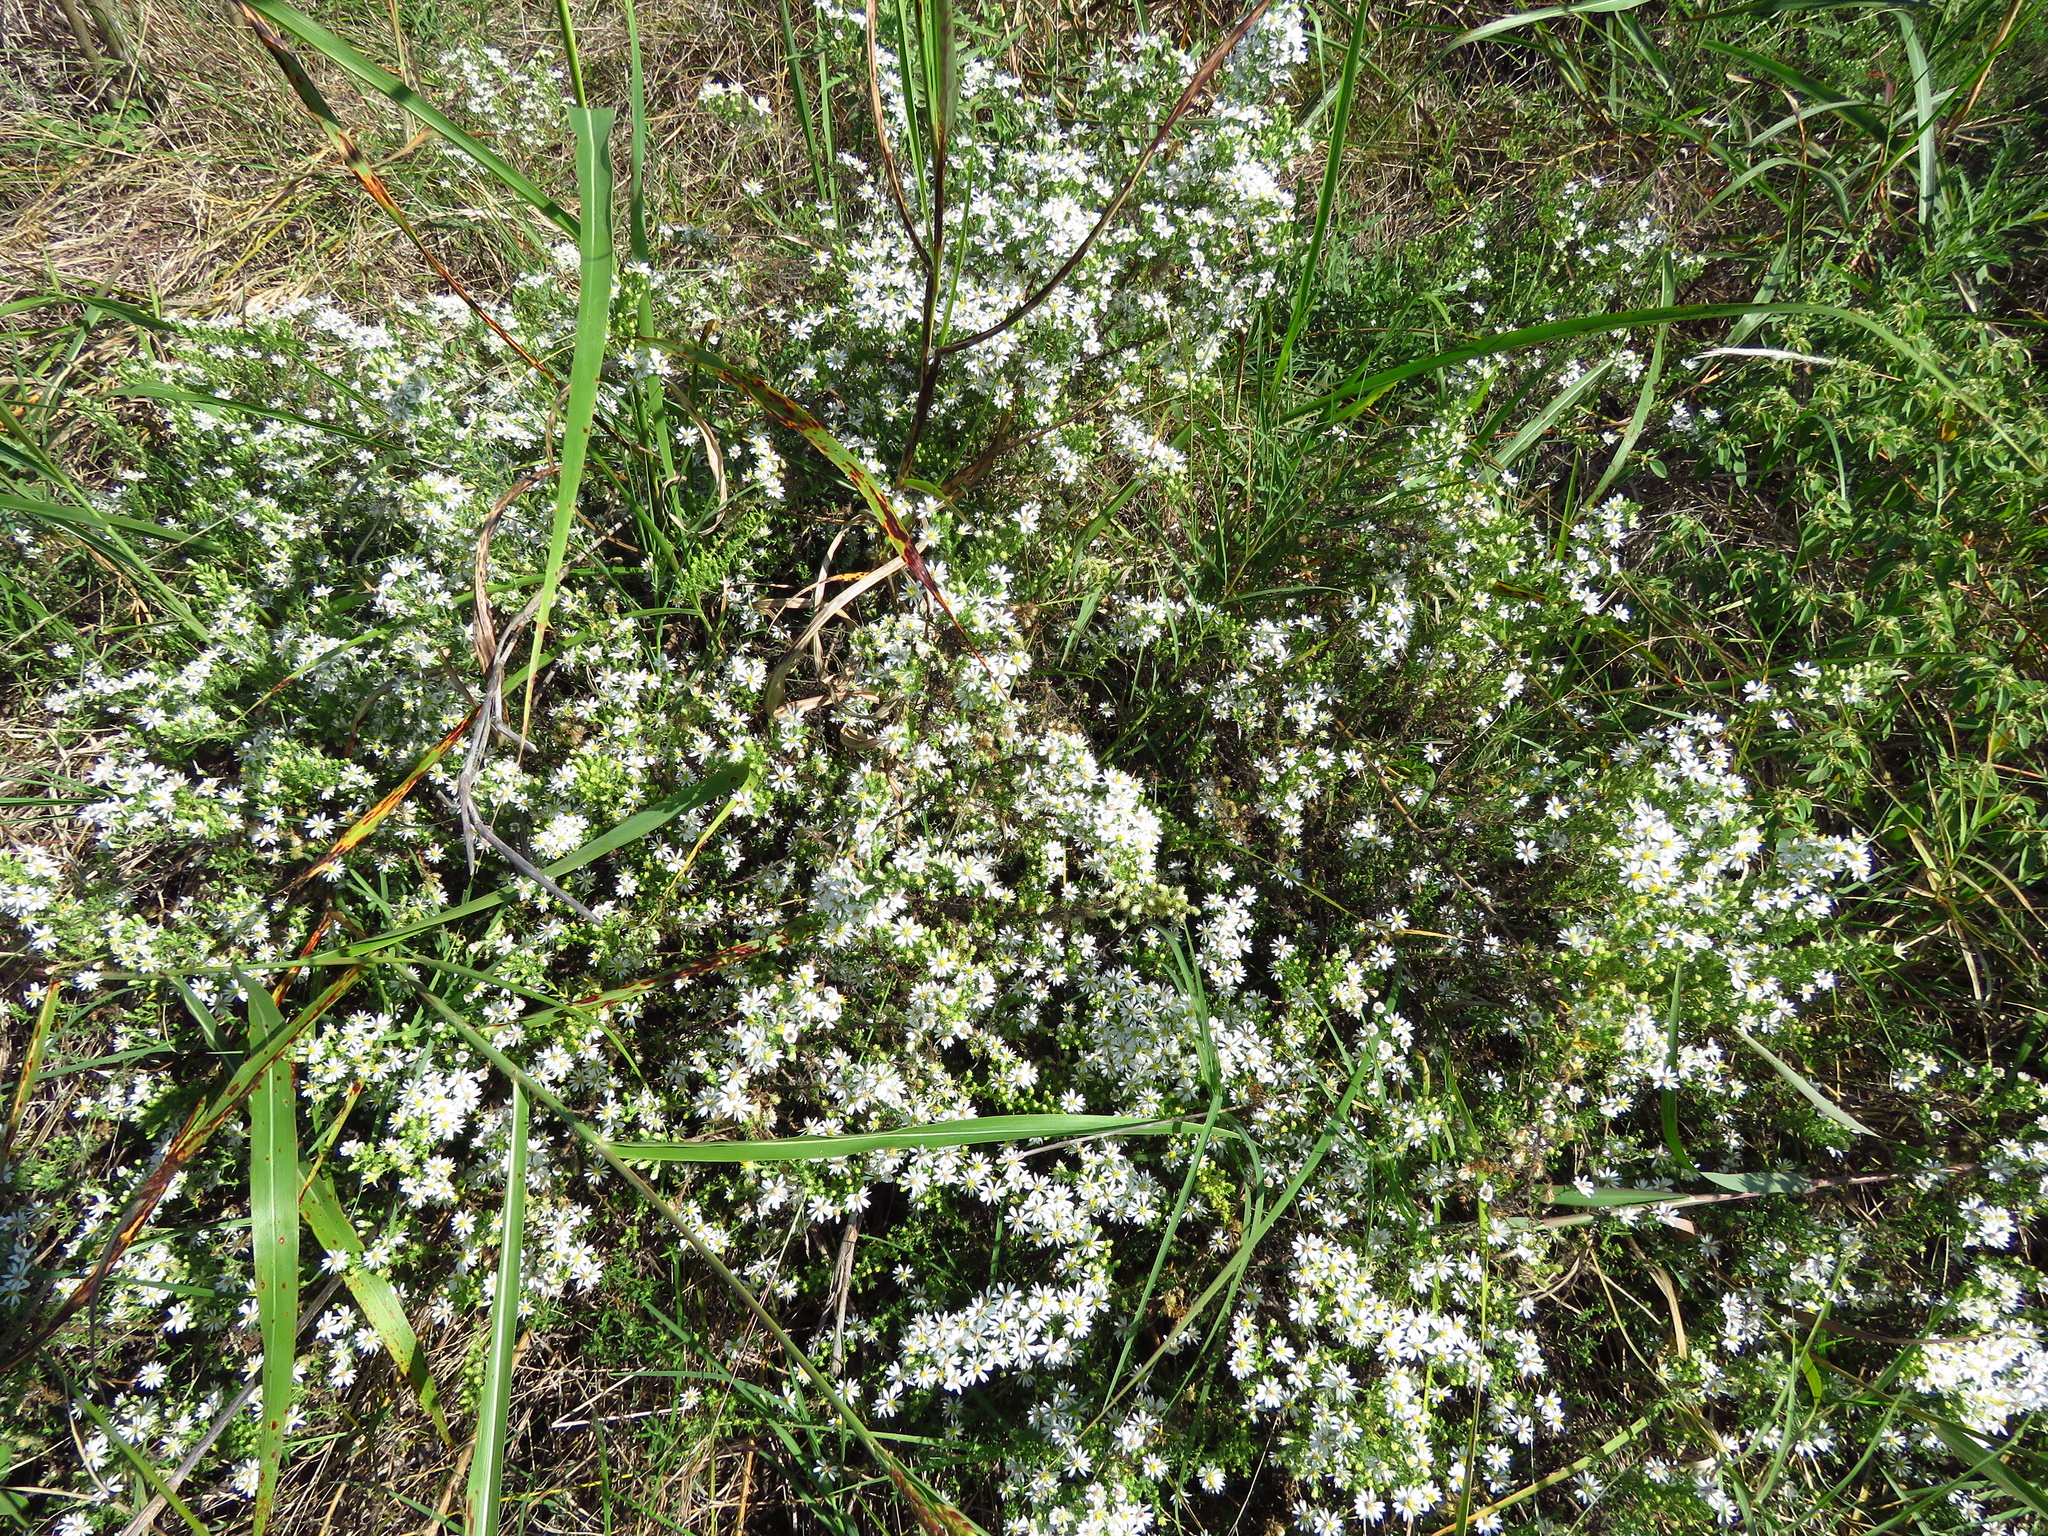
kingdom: Plantae
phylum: Tracheophyta
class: Magnoliopsida
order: Asterales
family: Asteraceae
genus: Symphyotrichum
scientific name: Symphyotrichum ericoides
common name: Heath aster
